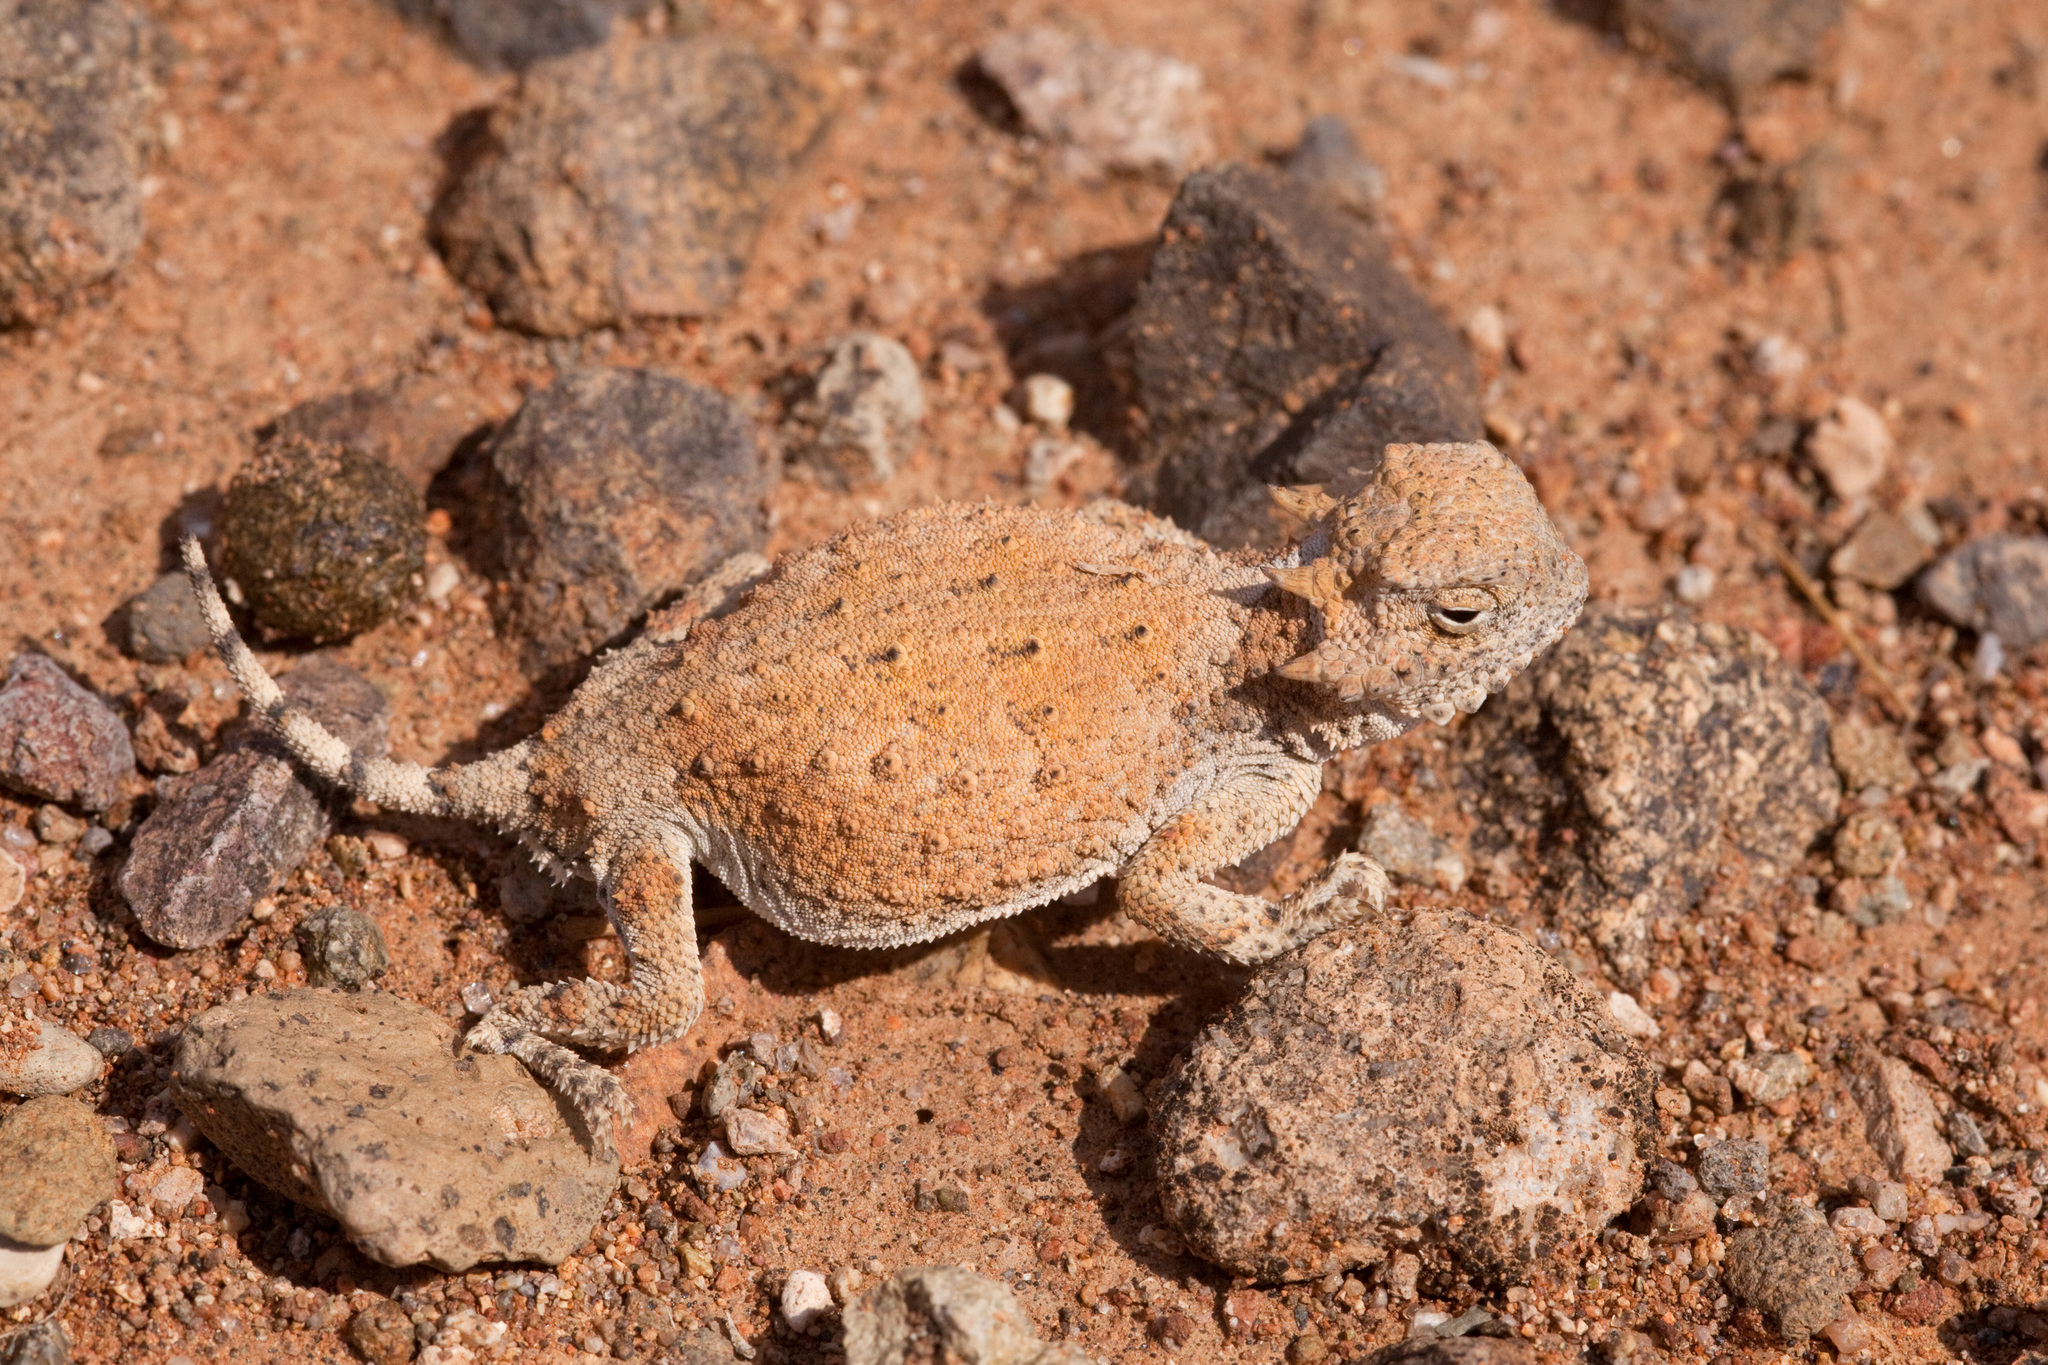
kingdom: Animalia
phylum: Chordata
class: Squamata
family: Phrynosomatidae
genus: Phrynosoma
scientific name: Phrynosoma modestum
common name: Roundtail horned lizard
